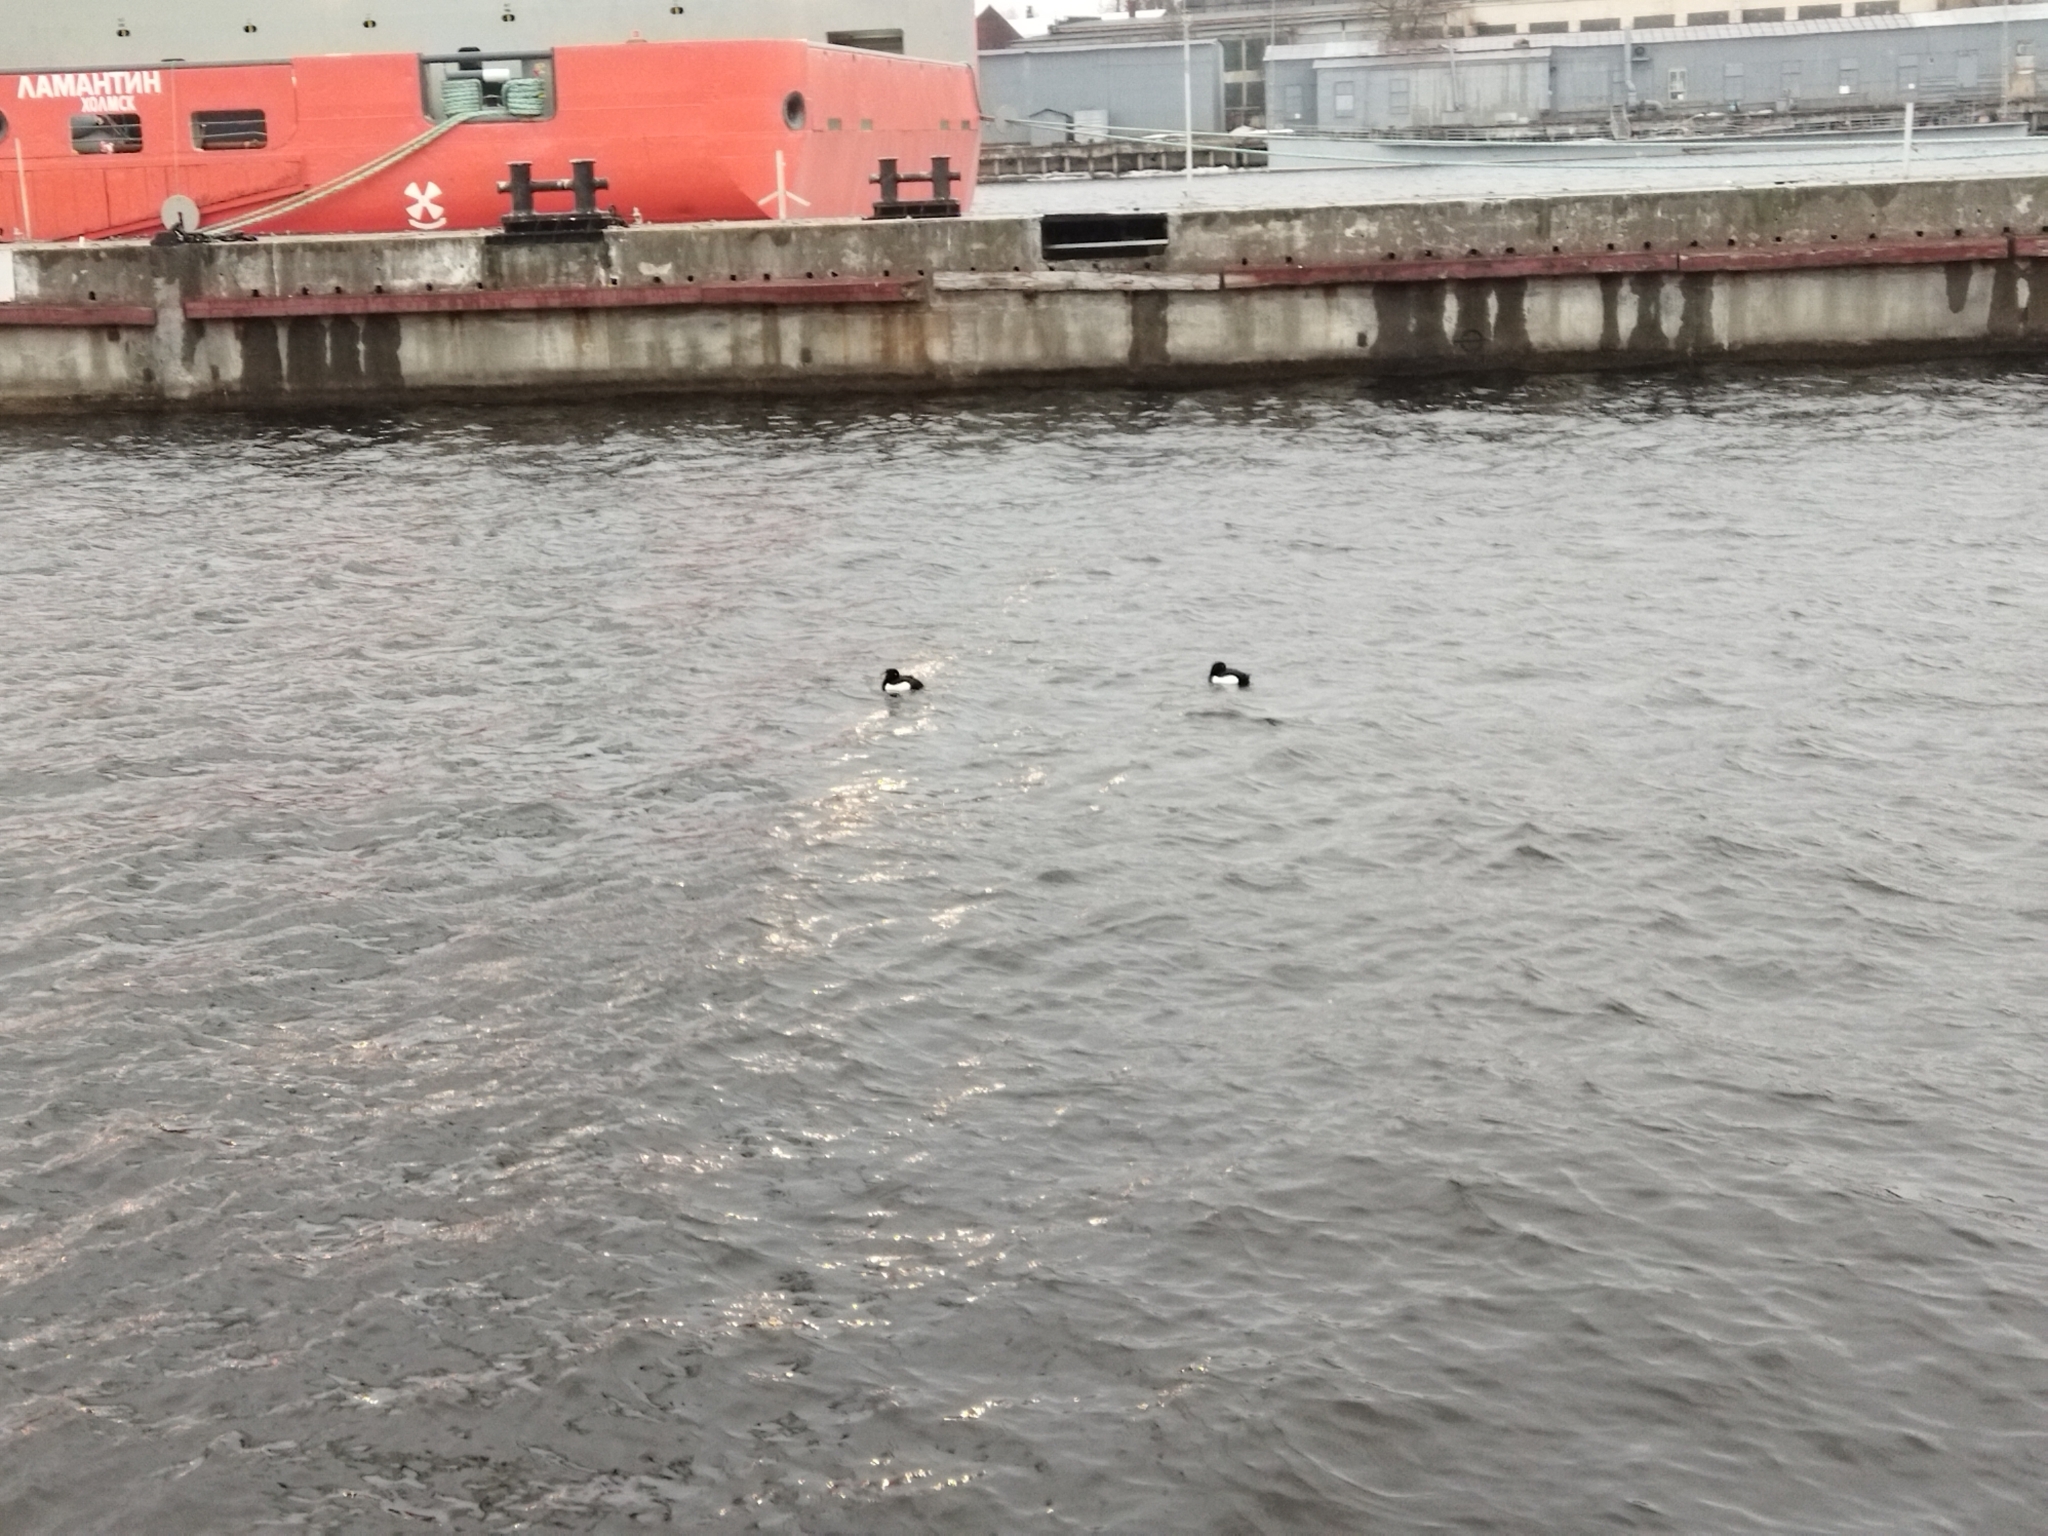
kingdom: Animalia
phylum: Chordata
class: Aves
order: Anseriformes
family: Anatidae
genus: Aythya
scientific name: Aythya fuligula
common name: Tufted duck
